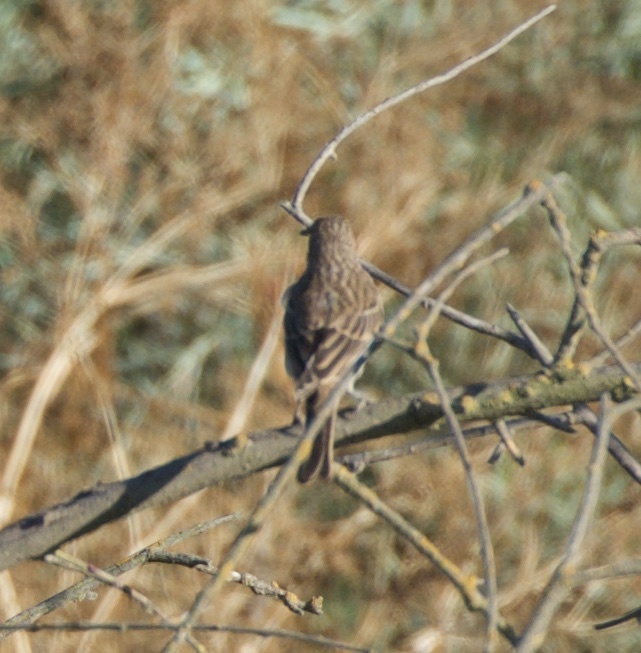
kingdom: Animalia
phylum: Chordata
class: Aves
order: Passeriformes
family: Fringillidae
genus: Haemorhous
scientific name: Haemorhous mexicanus
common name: House finch
